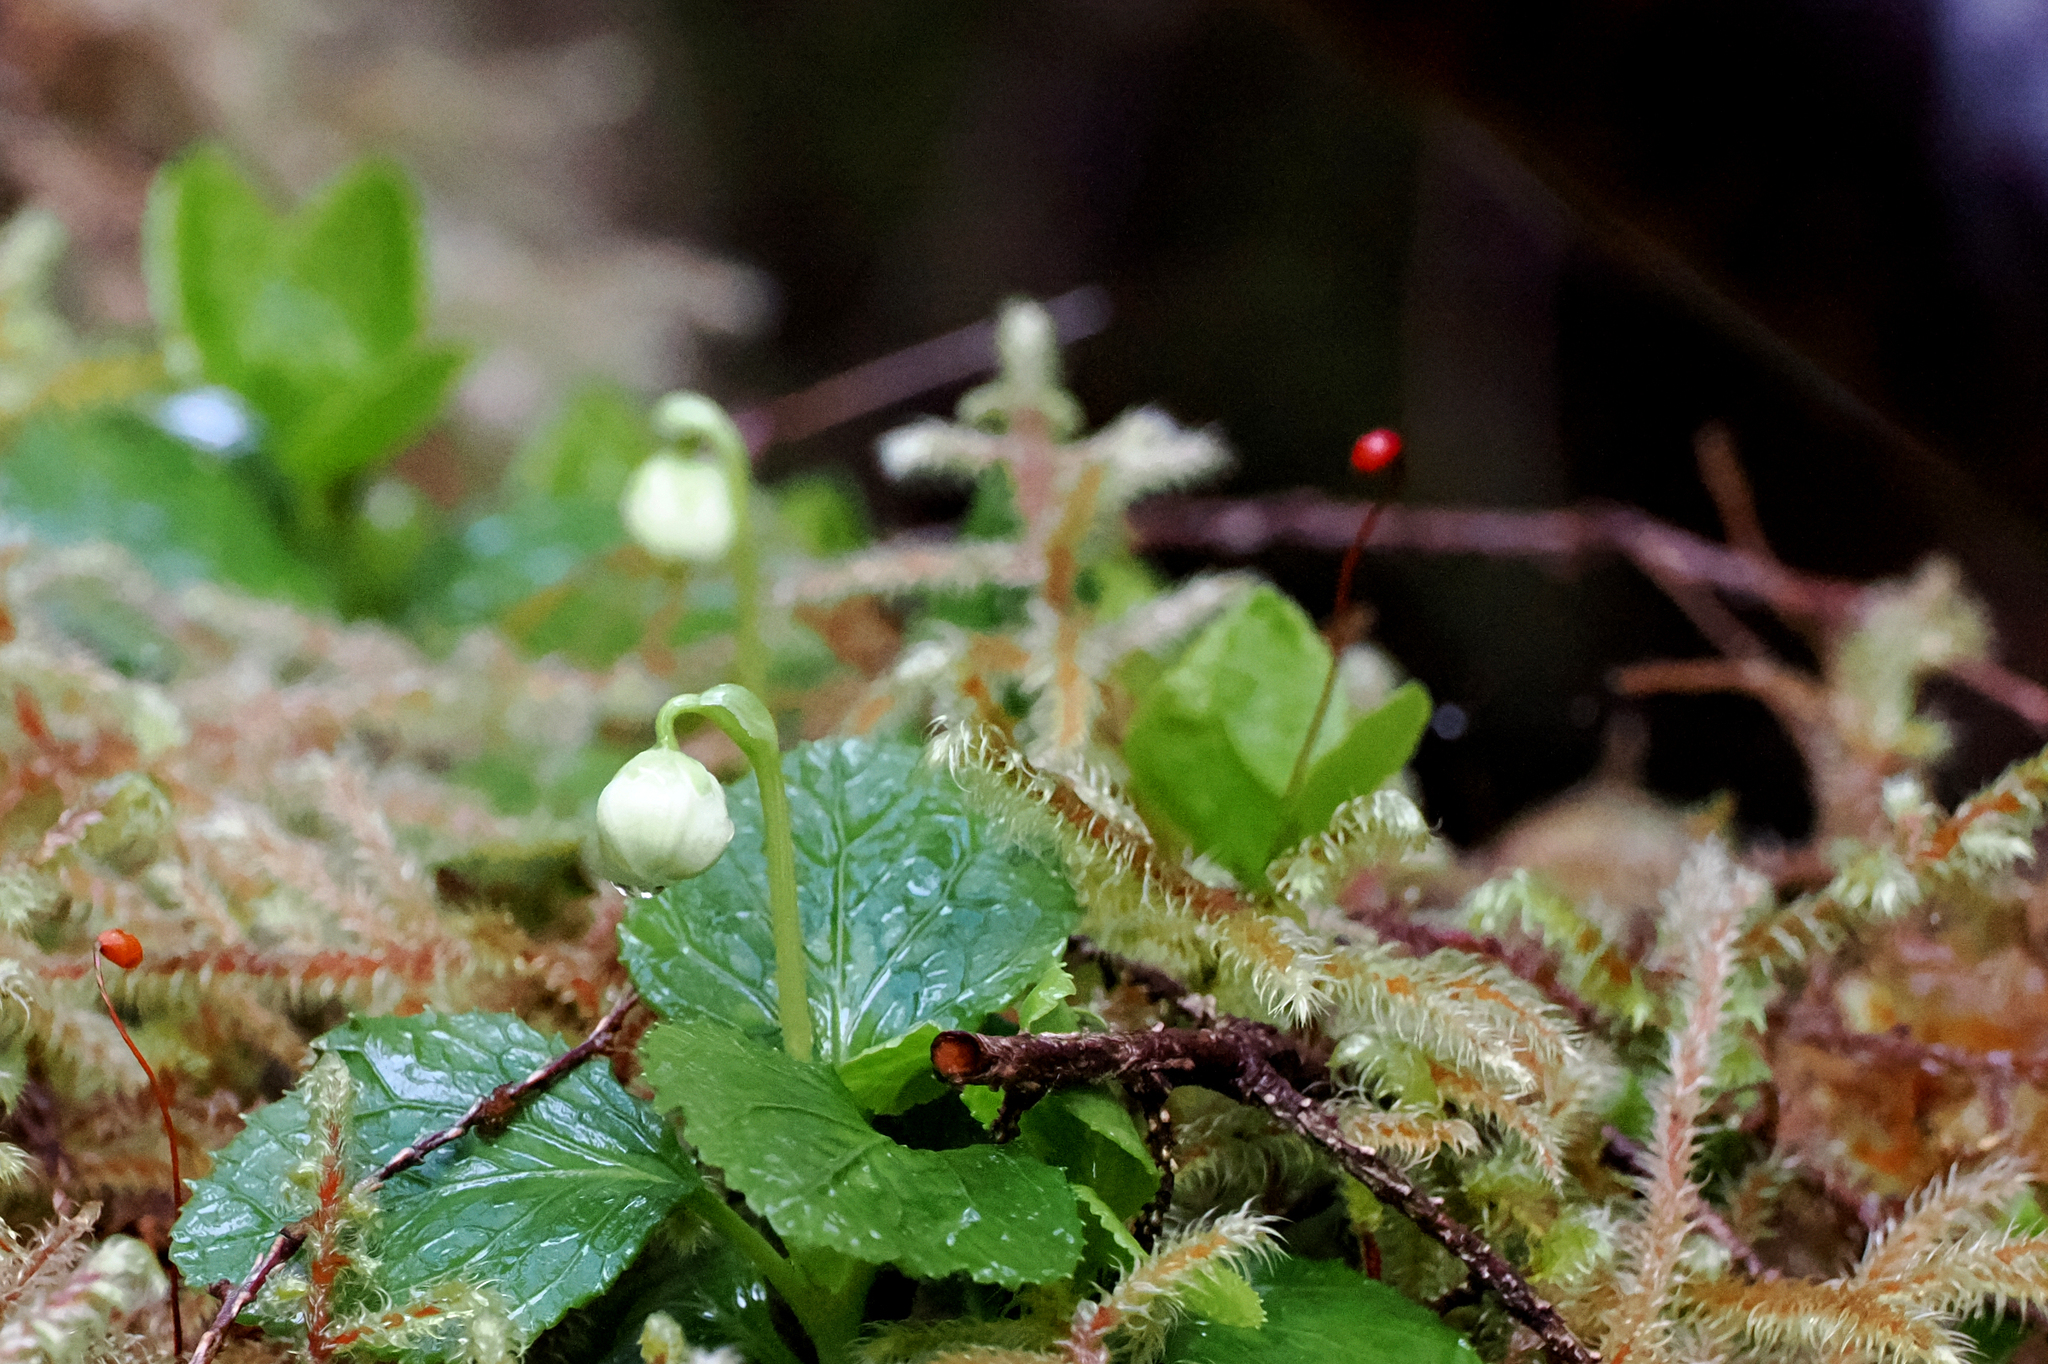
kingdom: Plantae
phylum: Tracheophyta
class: Magnoliopsida
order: Ericales
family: Ericaceae
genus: Moneses
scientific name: Moneses uniflora
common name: One-flowered wintergreen
